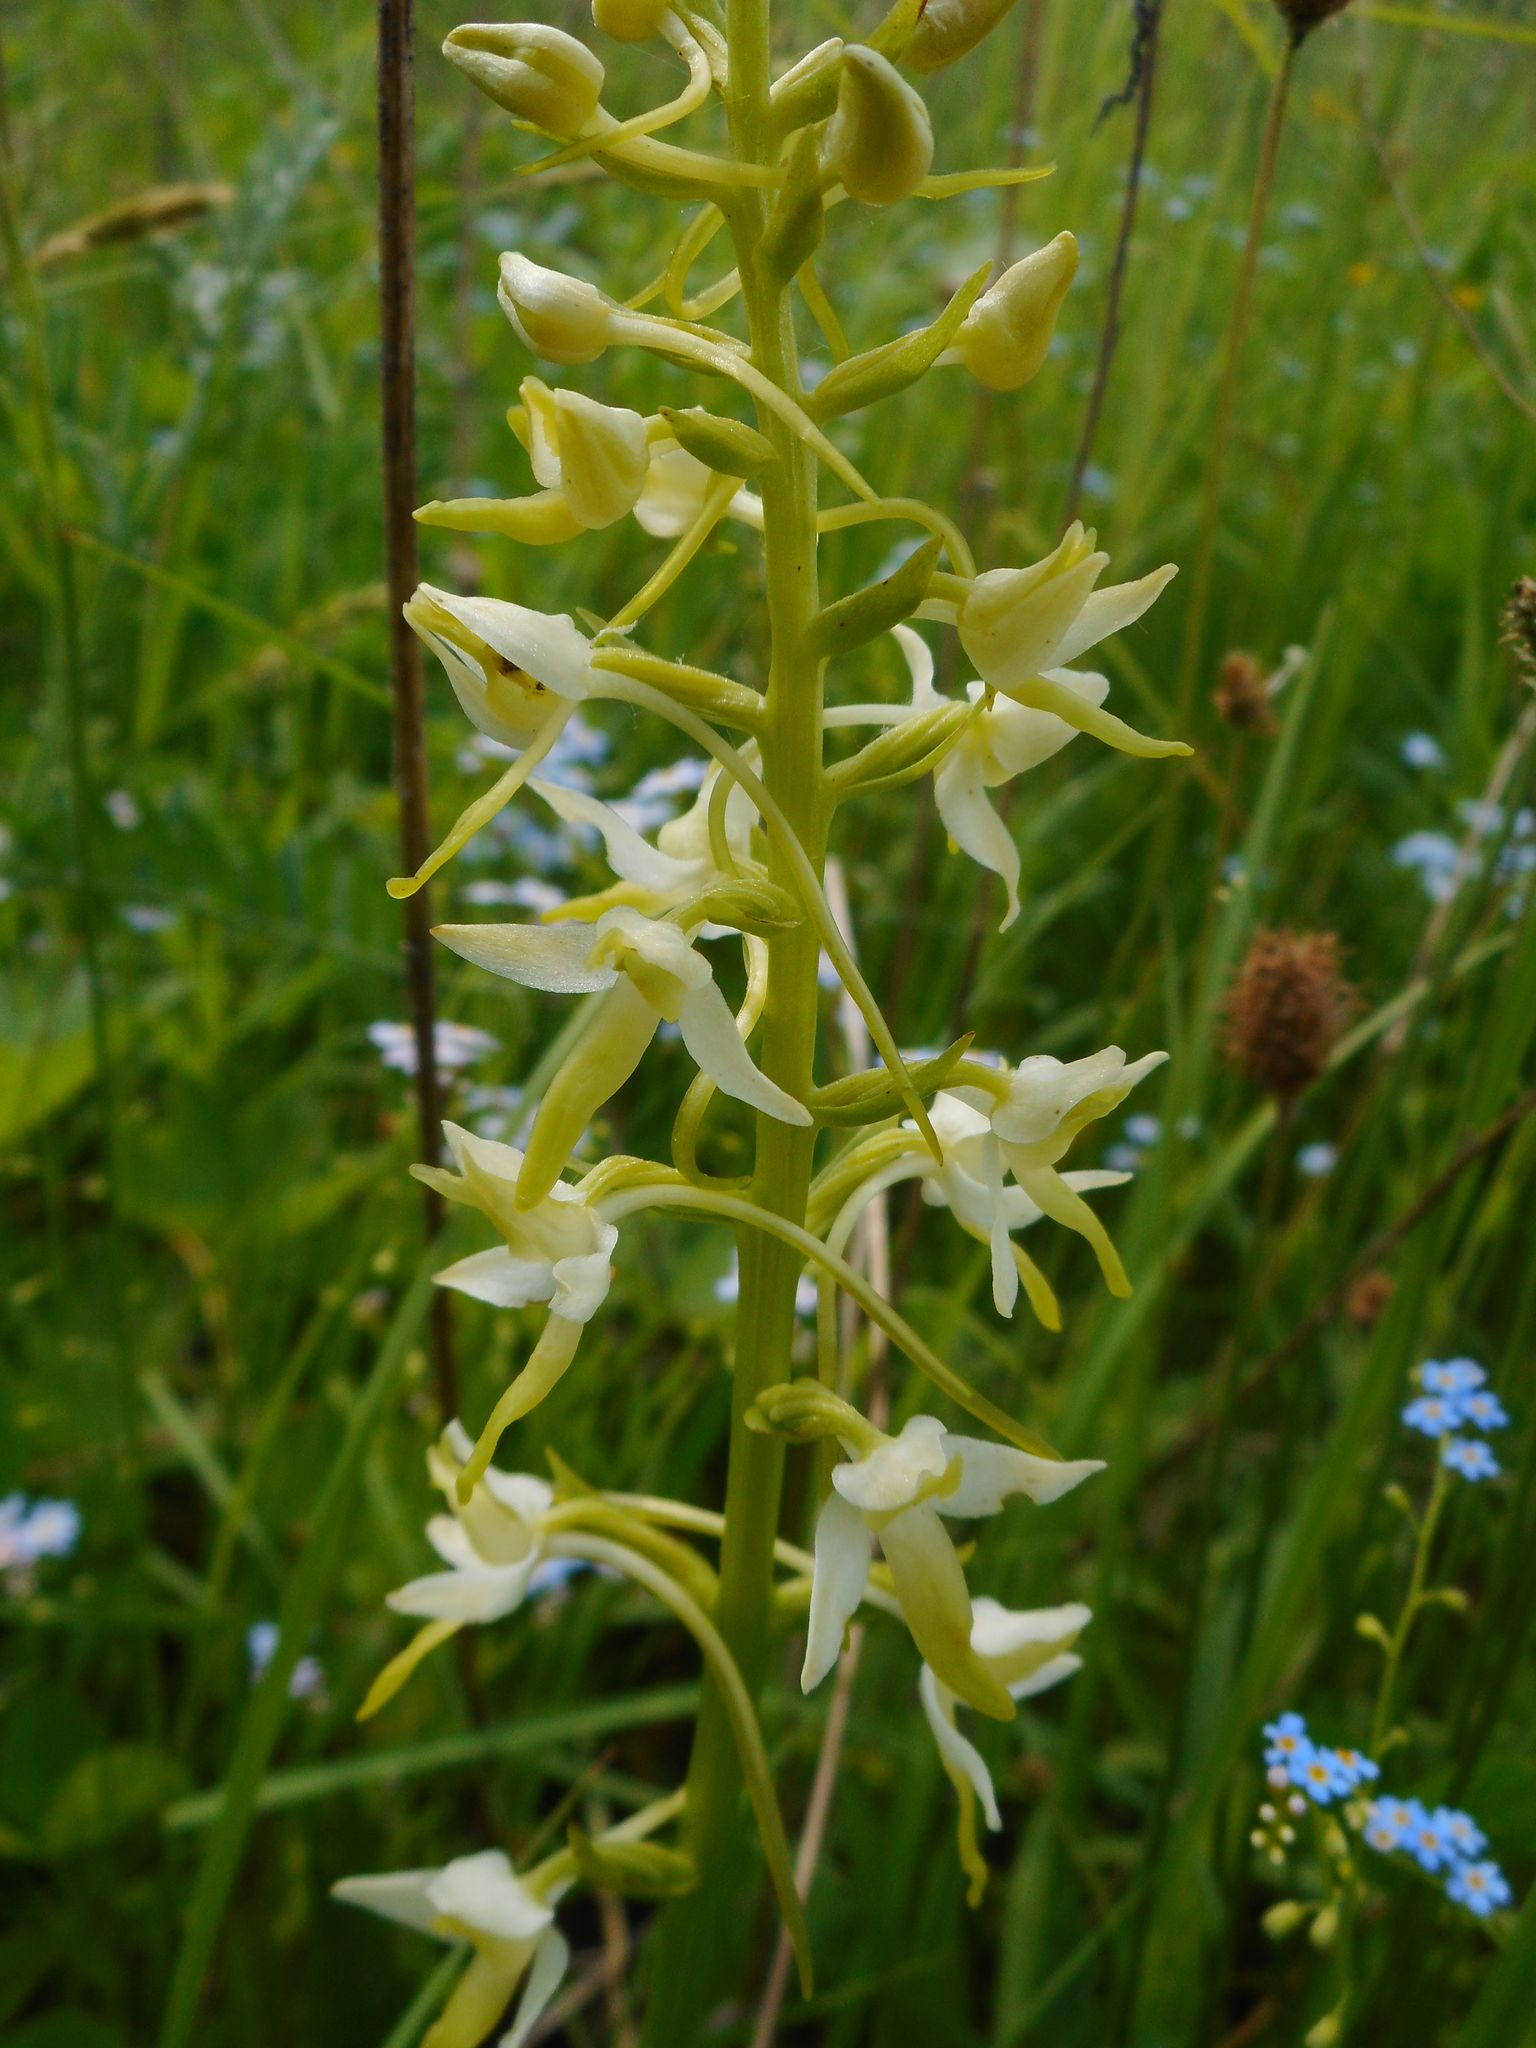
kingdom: Plantae
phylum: Tracheophyta
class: Liliopsida
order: Asparagales
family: Orchidaceae
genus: Platanthera
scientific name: Platanthera chlorantha
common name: Greater butterfly-orchid
